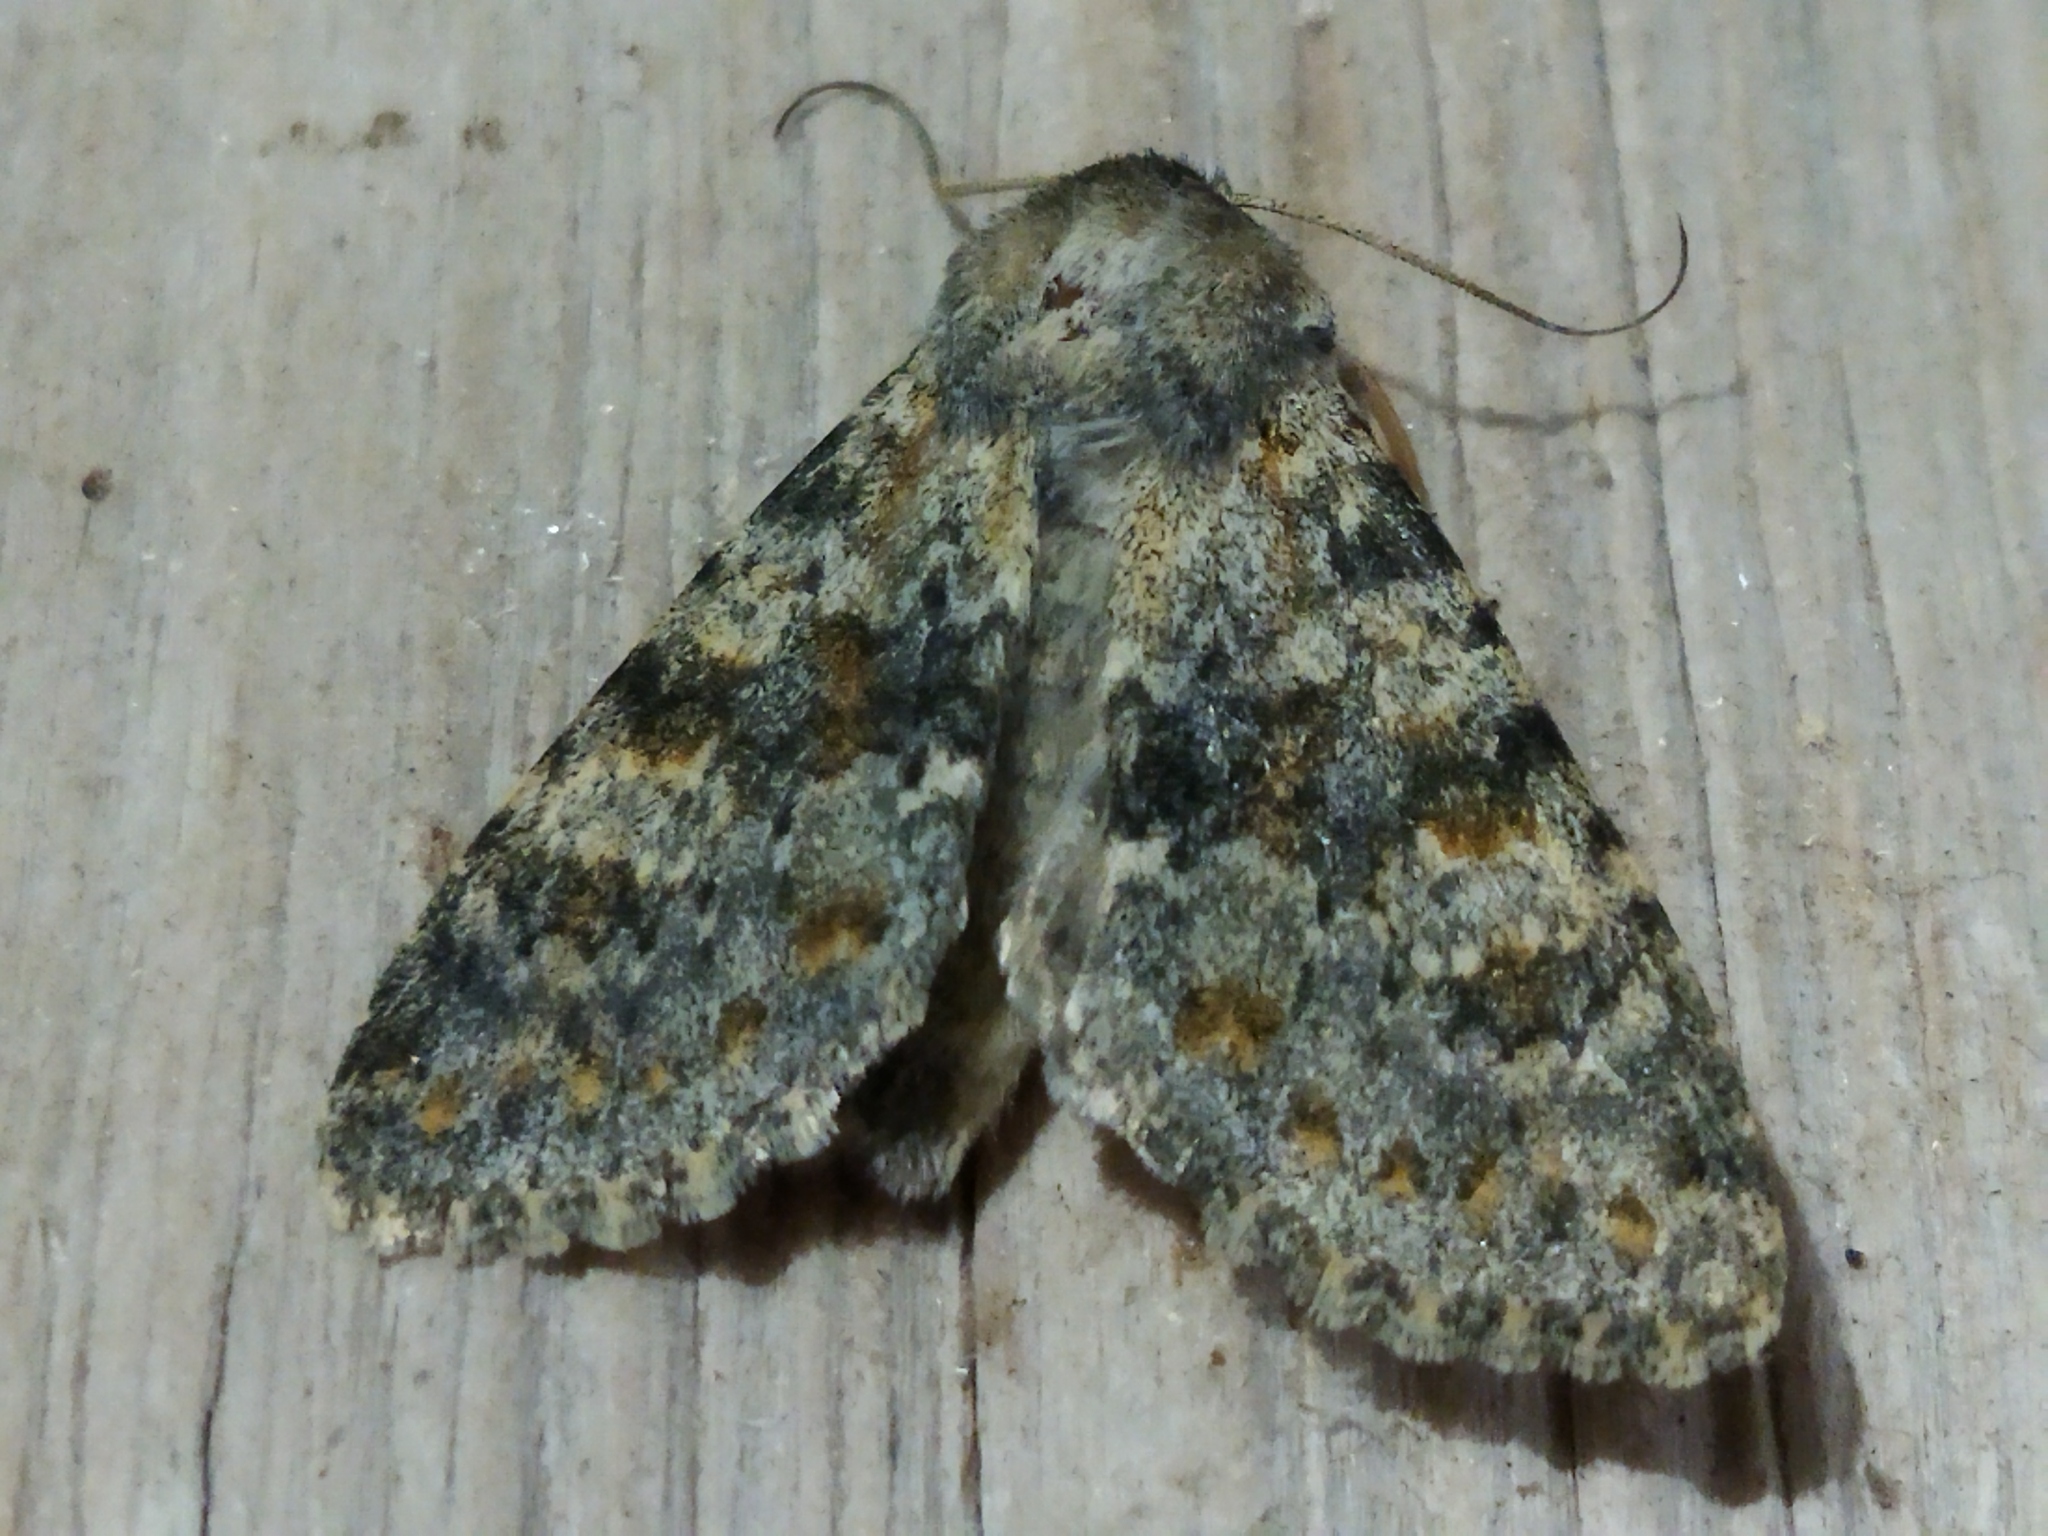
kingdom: Animalia
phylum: Arthropoda
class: Insecta
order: Lepidoptera
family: Noctuidae
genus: Polymixis
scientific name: Polymixis rufocincta
